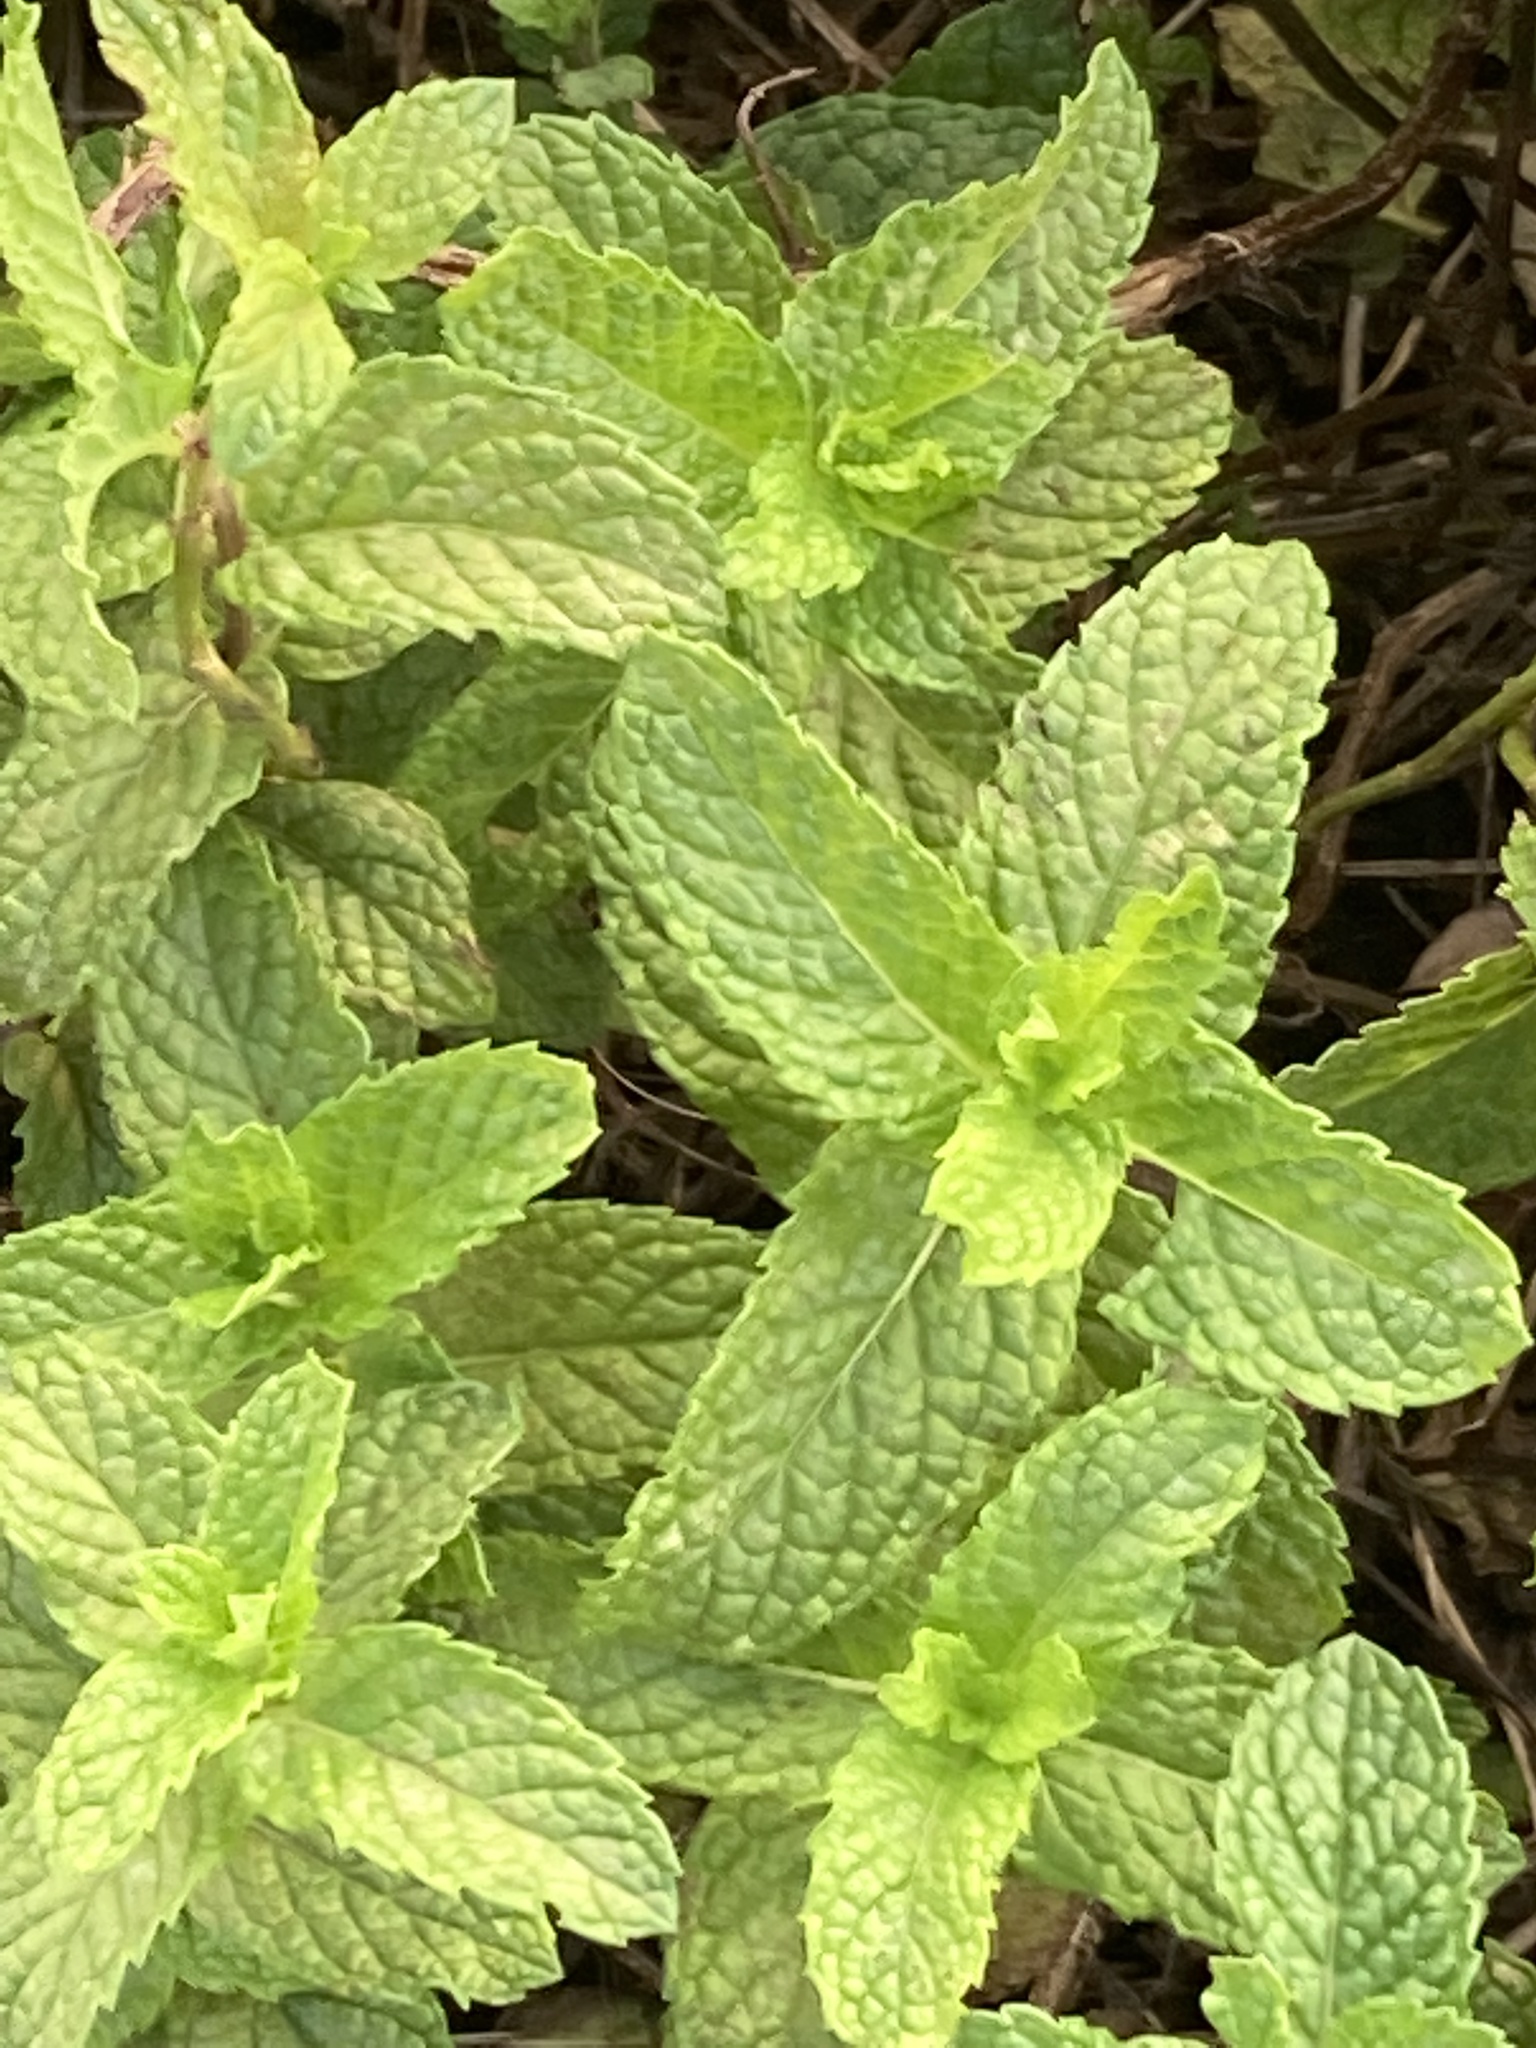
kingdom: Plantae
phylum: Tracheophyta
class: Magnoliopsida
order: Lamiales
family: Lamiaceae
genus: Melissa
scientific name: Melissa officinalis
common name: Balm
